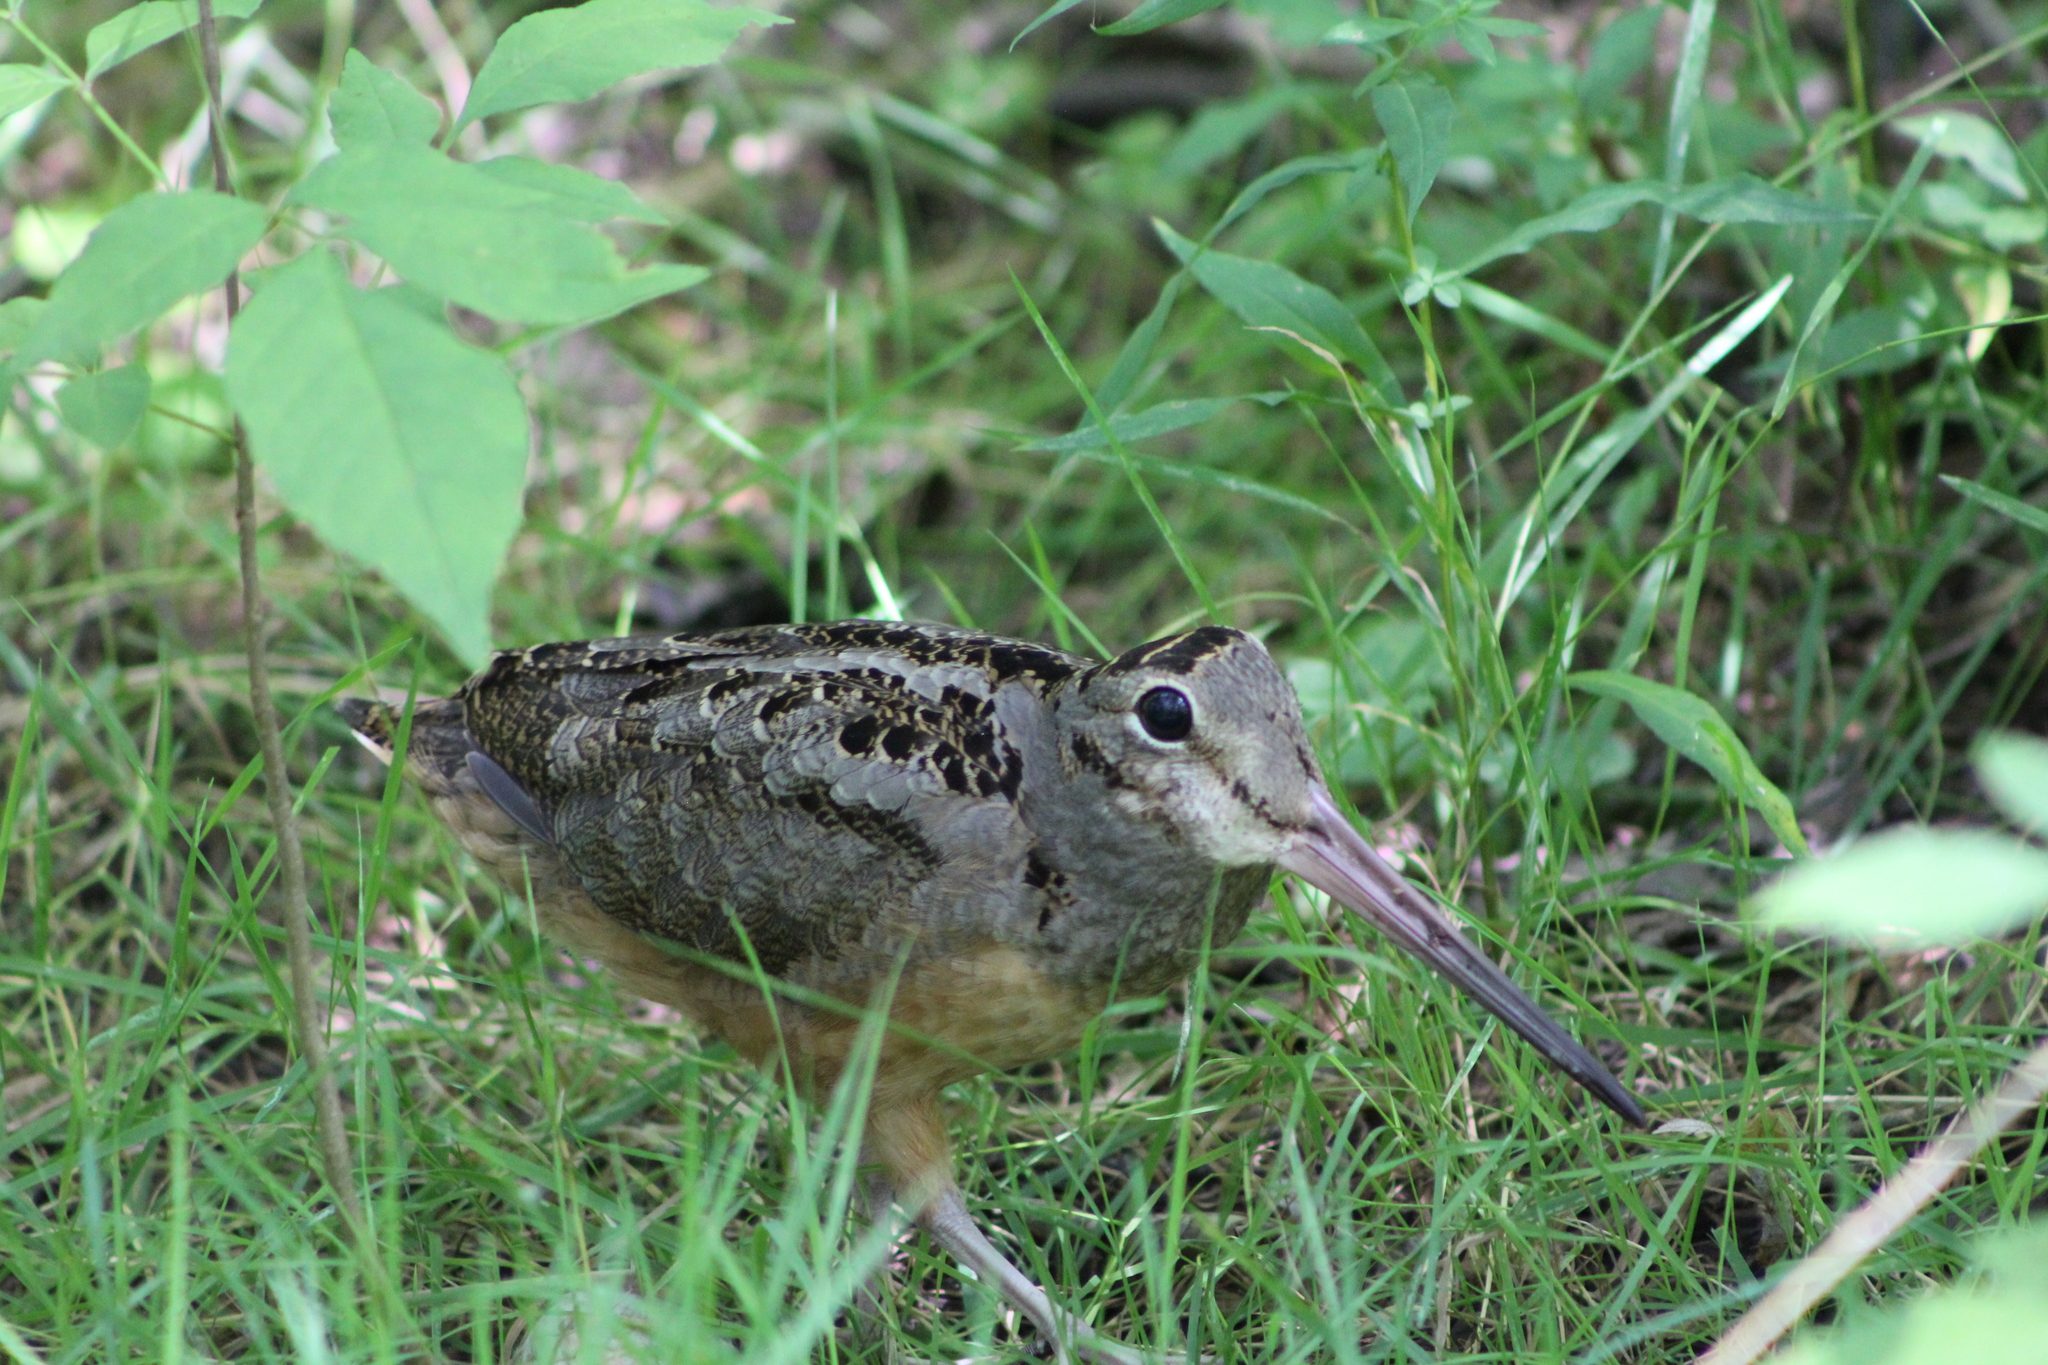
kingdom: Animalia
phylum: Chordata
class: Aves
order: Charadriiformes
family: Scolopacidae
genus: Scolopax
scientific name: Scolopax minor
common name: American woodcock
